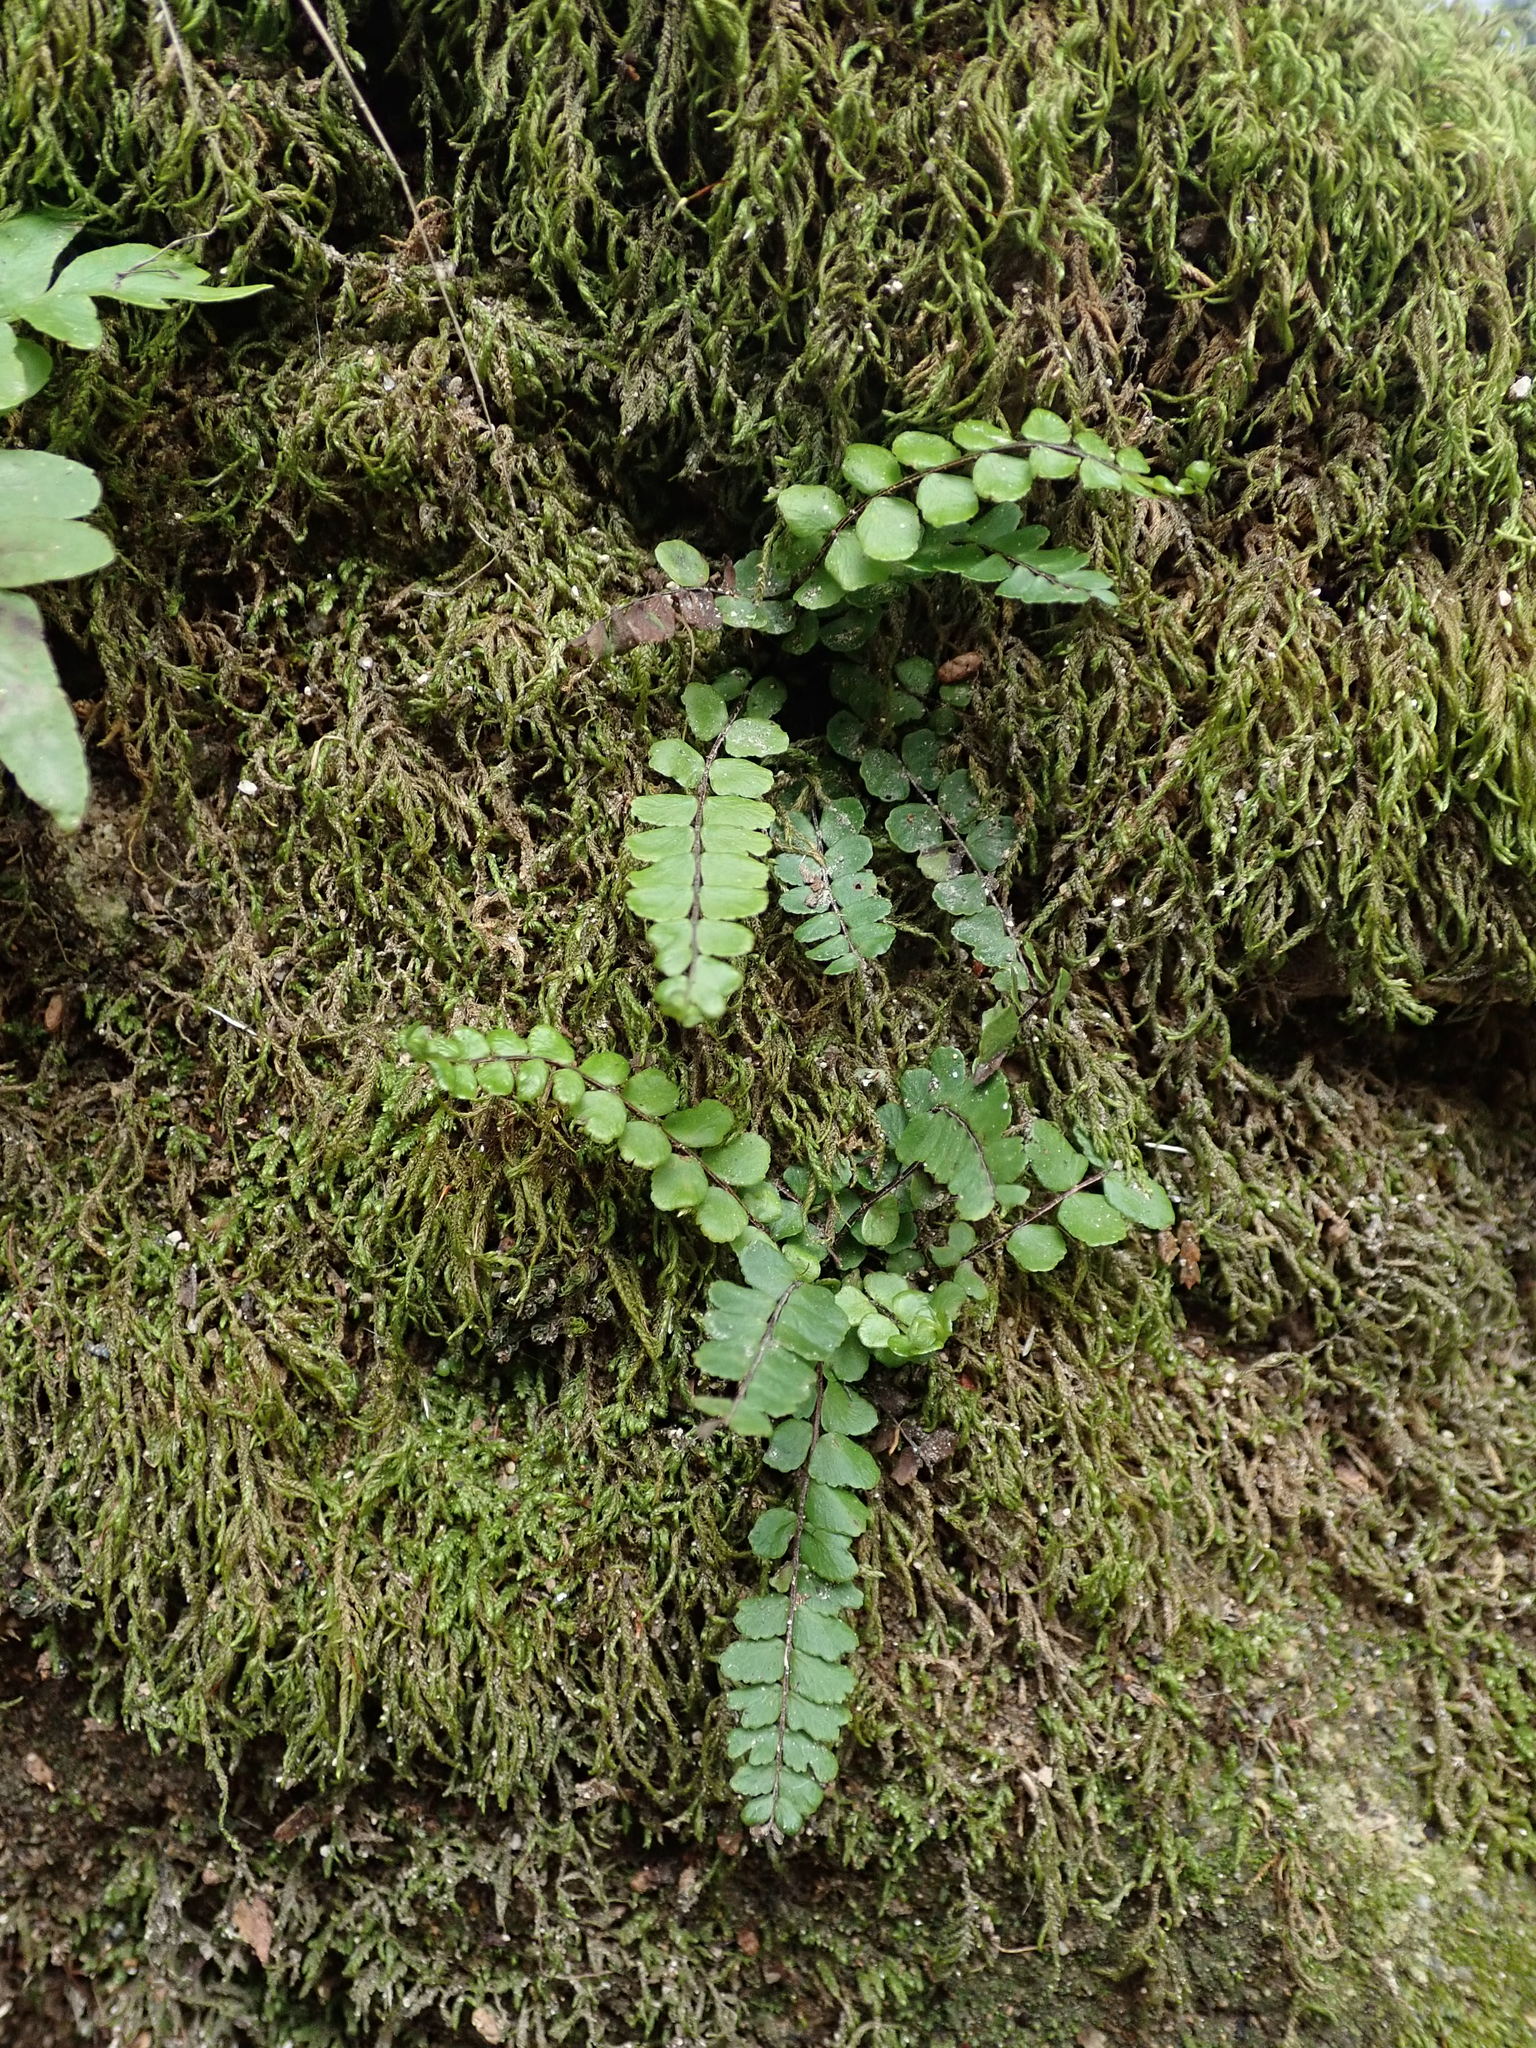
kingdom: Plantae
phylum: Tracheophyta
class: Polypodiopsida
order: Polypodiales
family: Aspleniaceae
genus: Asplenium
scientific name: Asplenium trichomanes
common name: Maidenhair spleenwort
